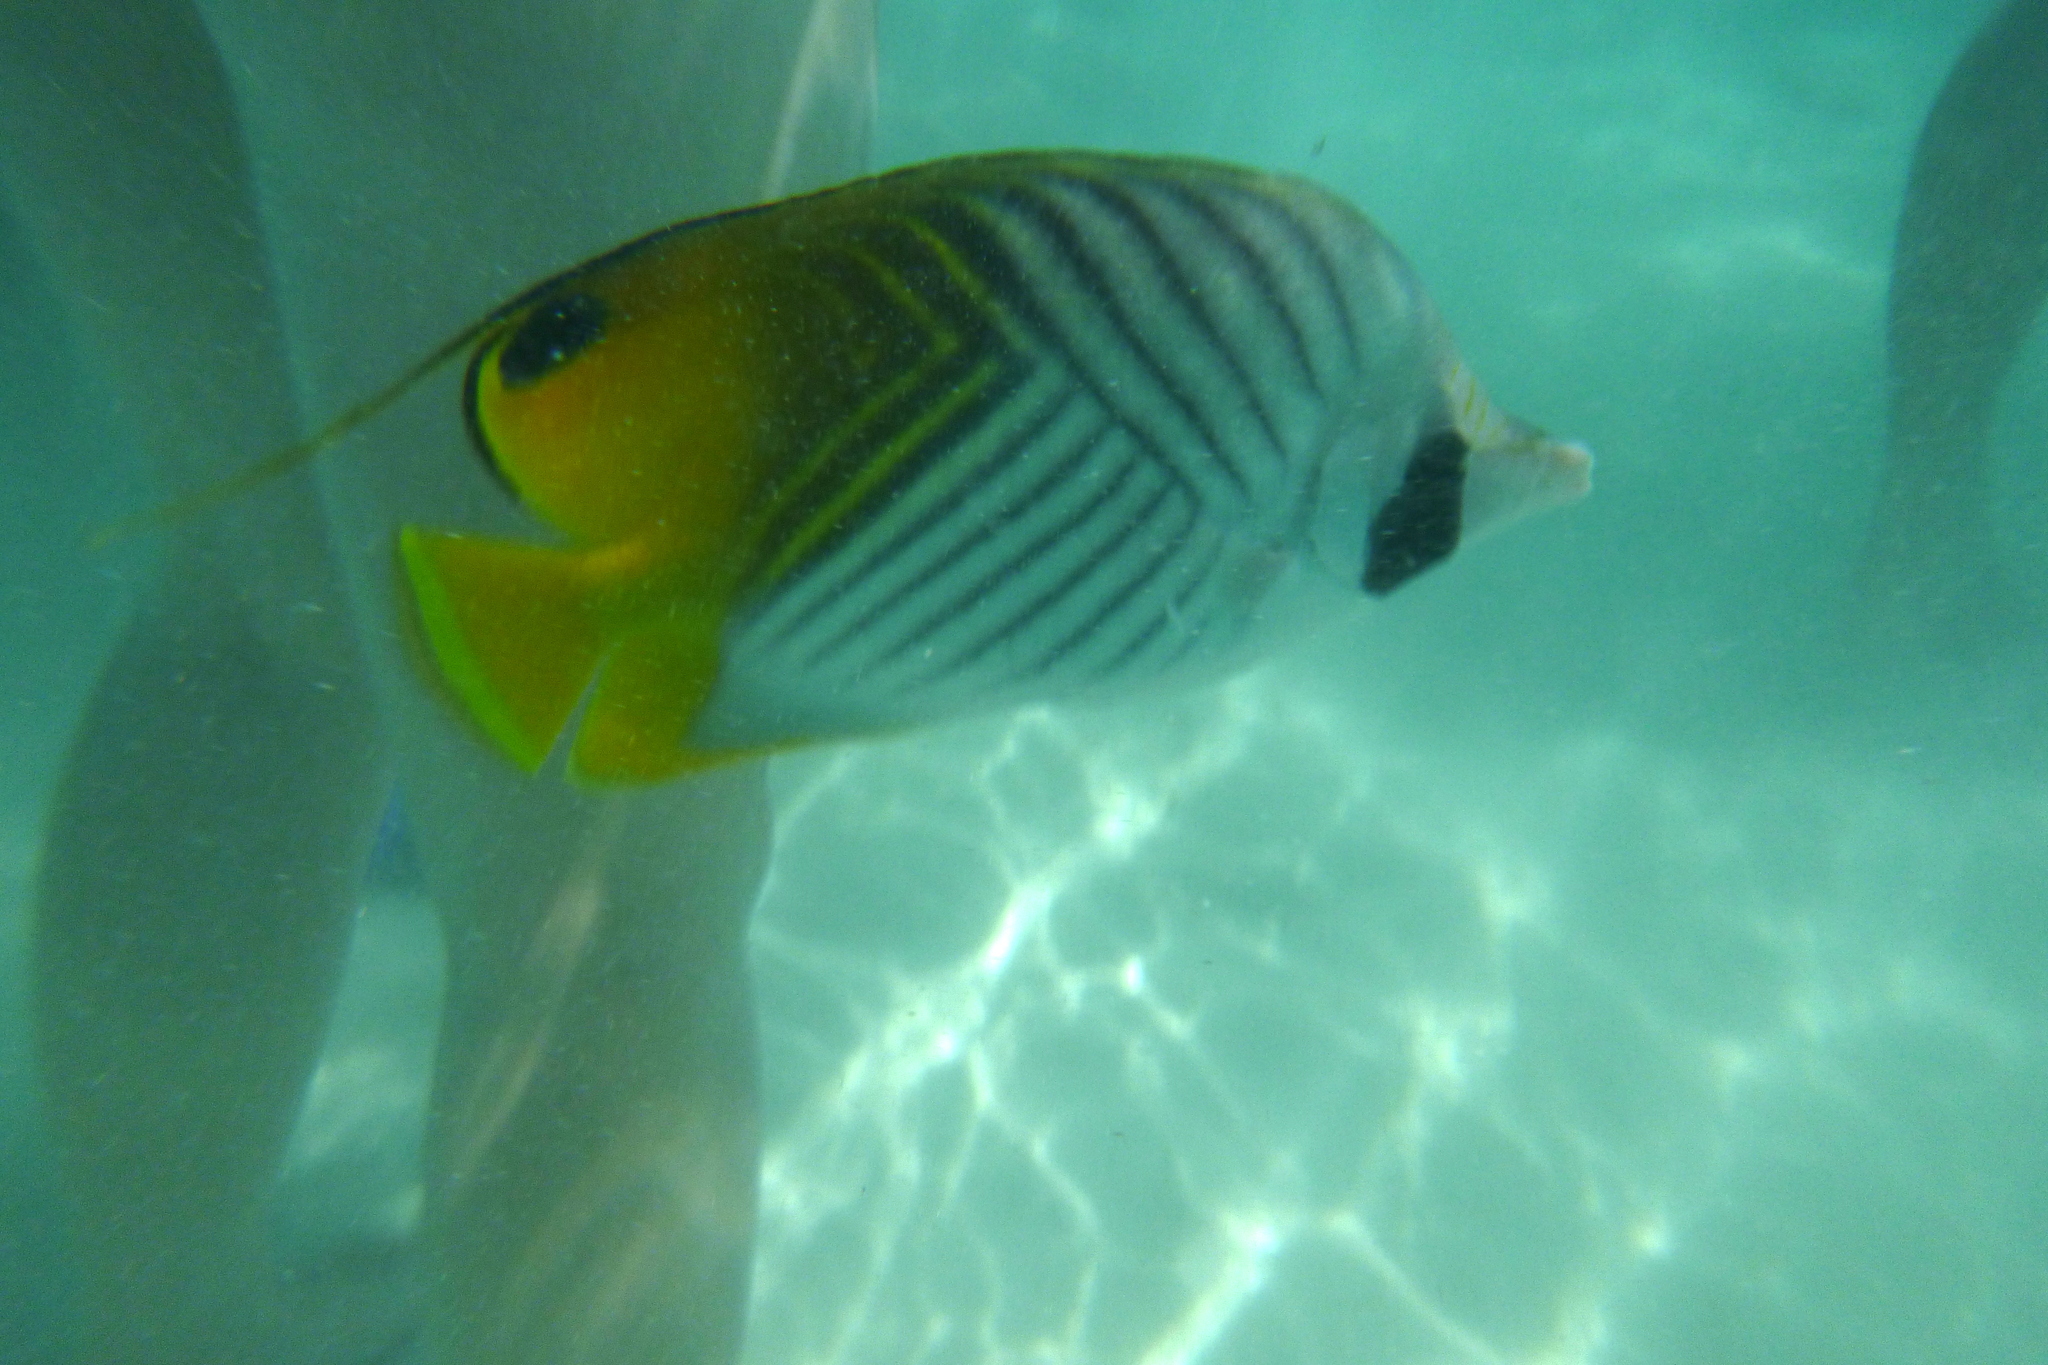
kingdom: Animalia
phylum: Chordata
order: Perciformes
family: Chaetodontidae
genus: Chaetodon
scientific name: Chaetodon auriga
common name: Threadfin butterflyfish
